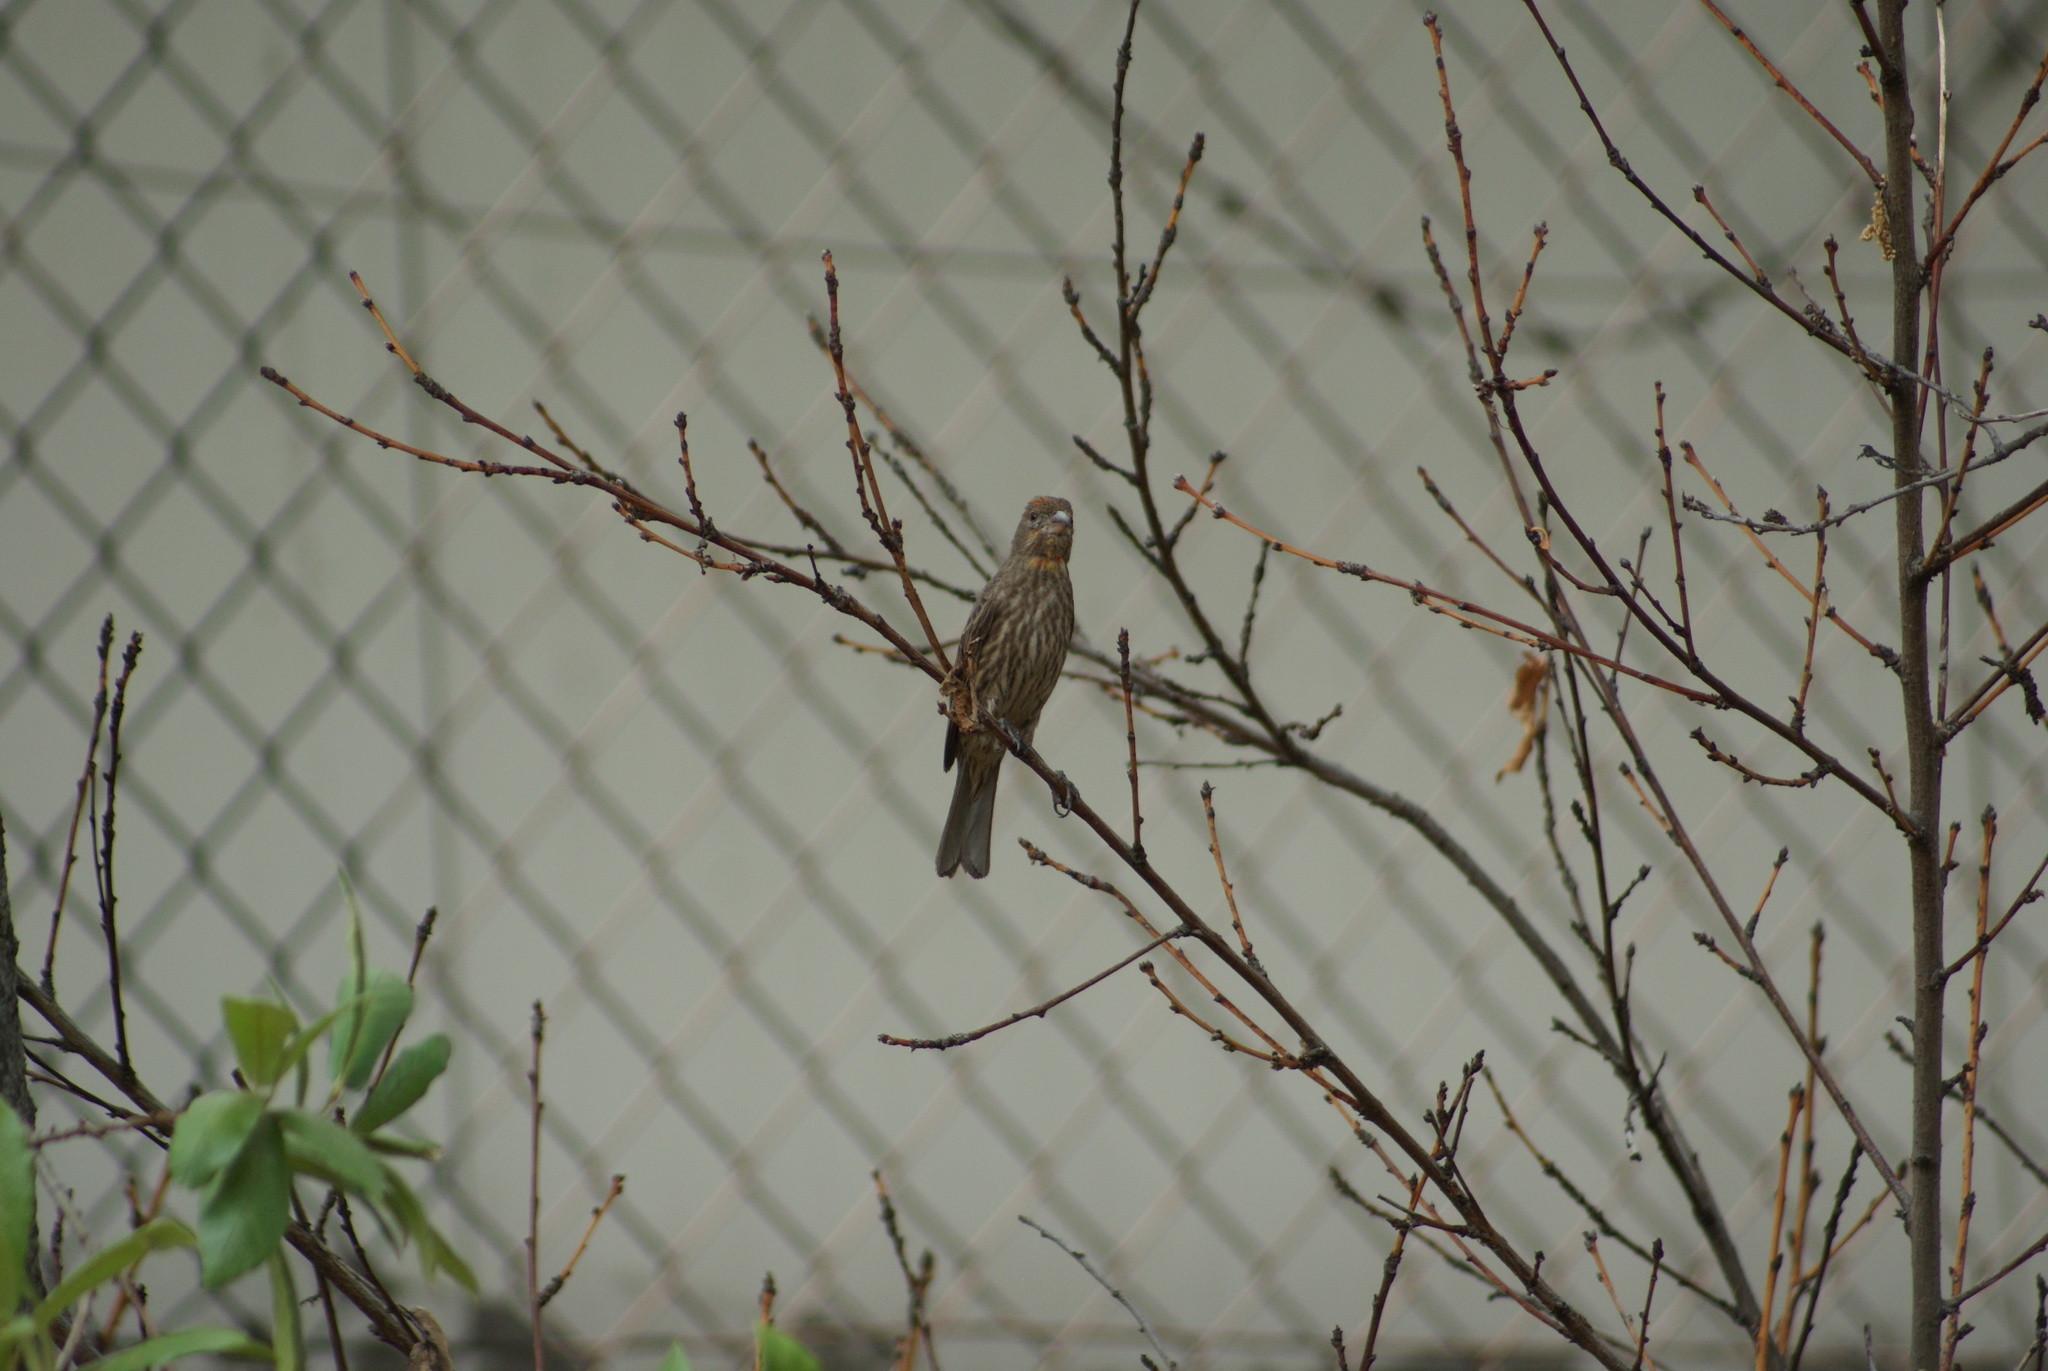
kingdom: Animalia
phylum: Chordata
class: Aves
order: Passeriformes
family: Fringillidae
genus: Haemorhous
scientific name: Haemorhous mexicanus
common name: House finch
